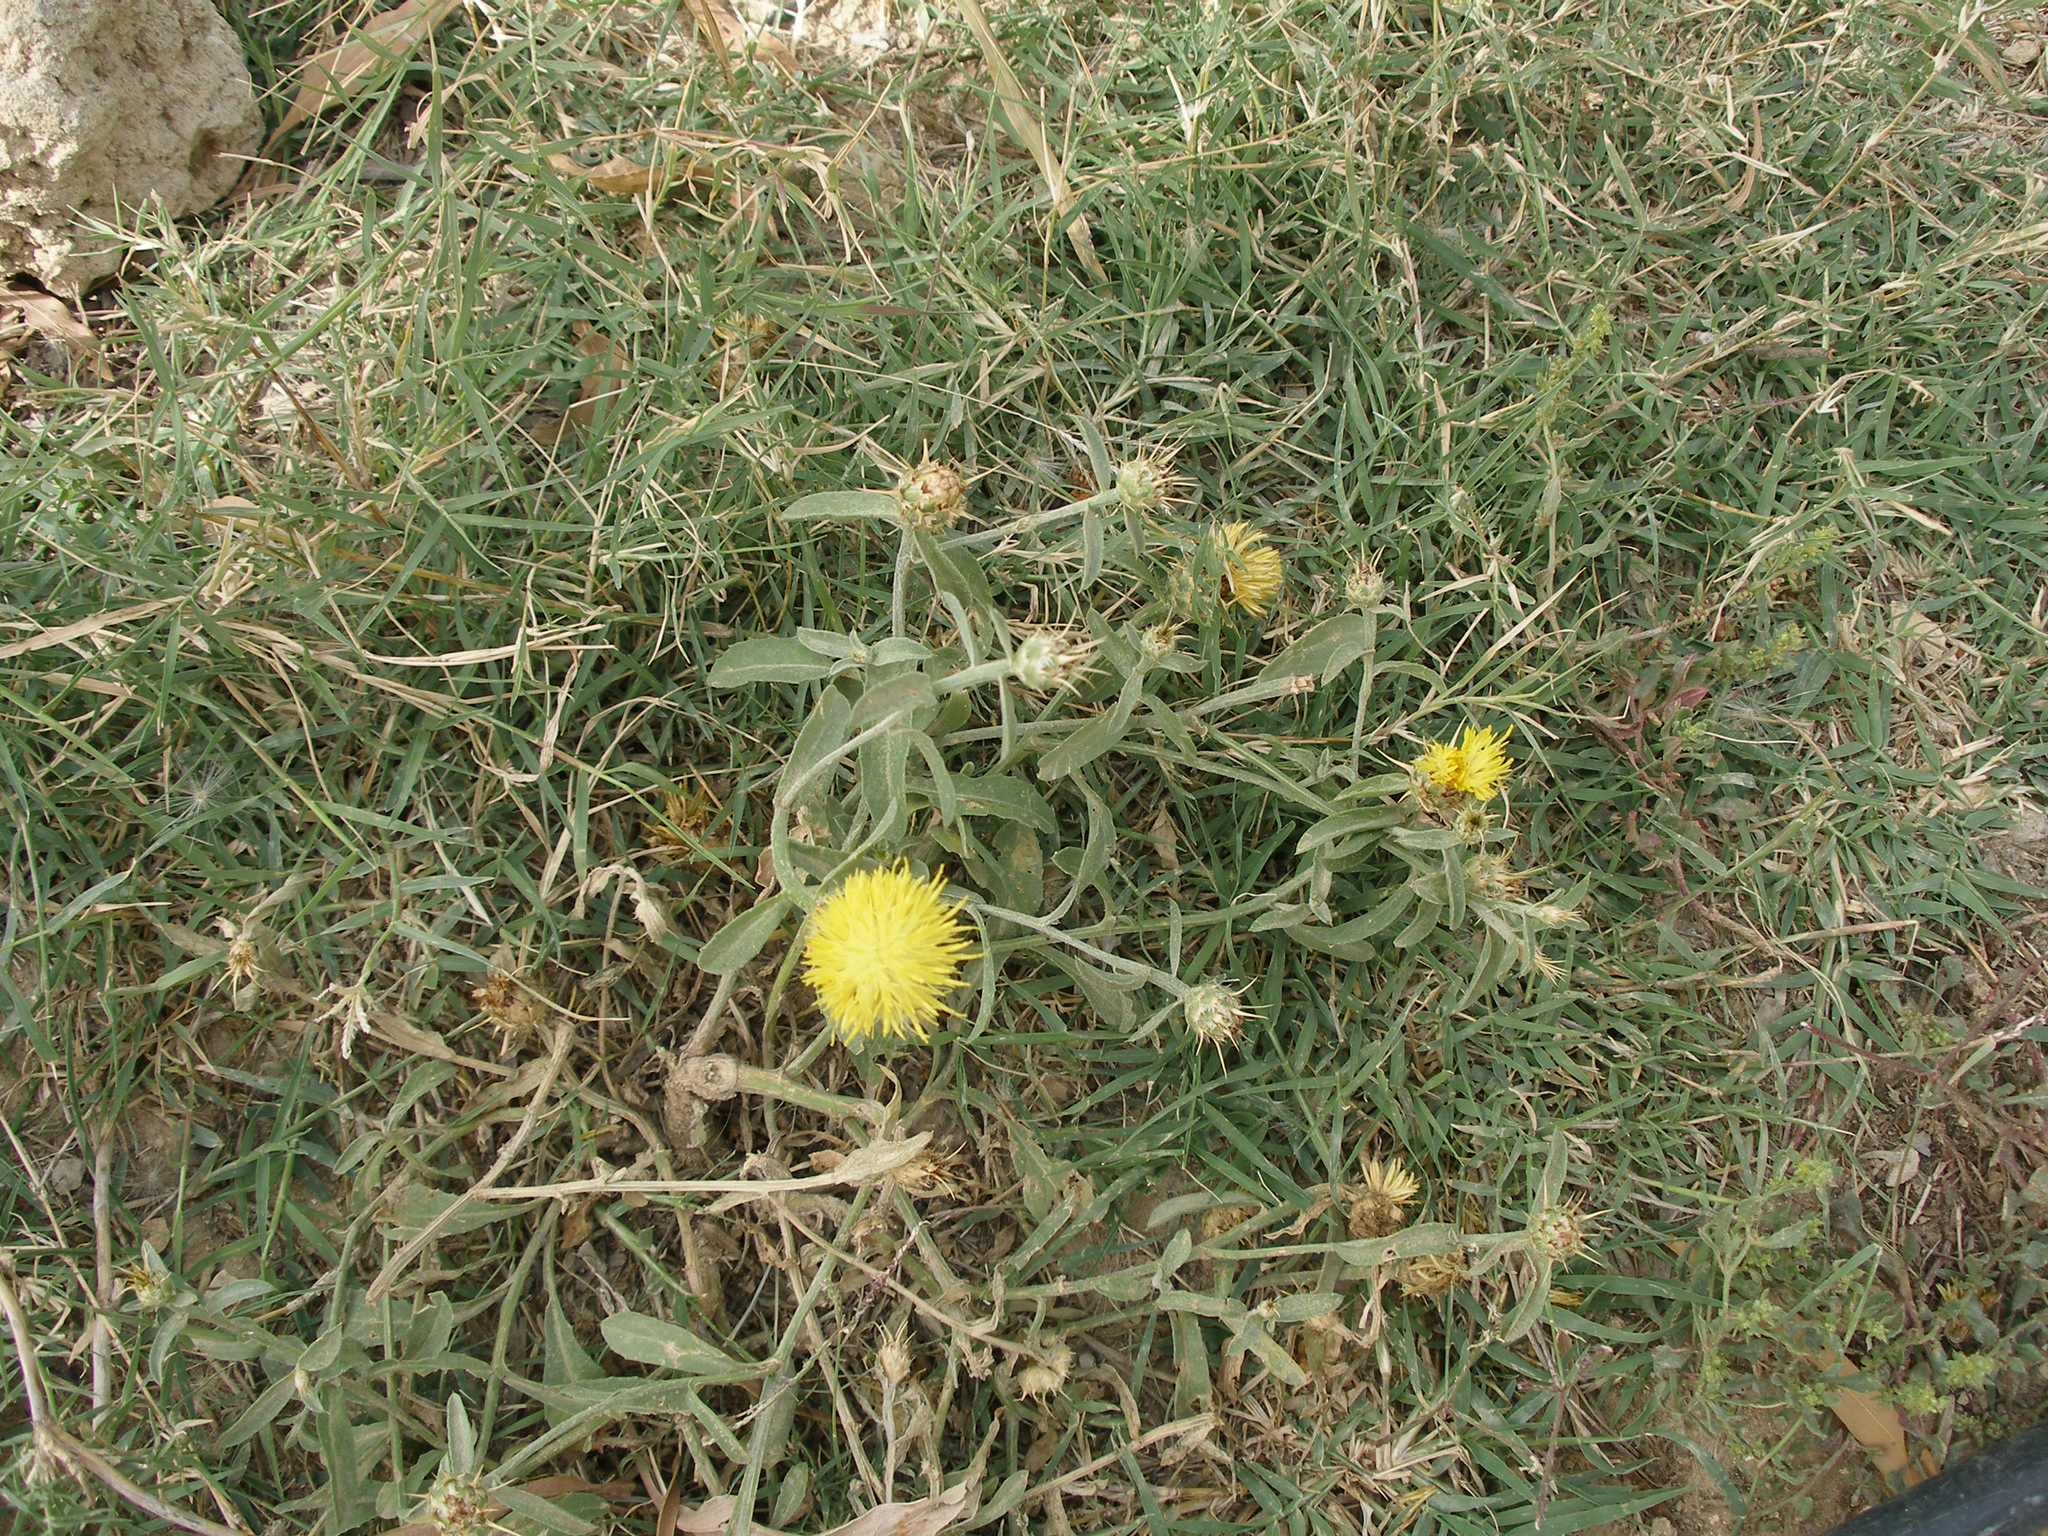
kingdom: Plantae
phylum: Tracheophyta
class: Magnoliopsida
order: Asterales
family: Asteraceae
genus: Centaurea
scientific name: Centaurea sicula
